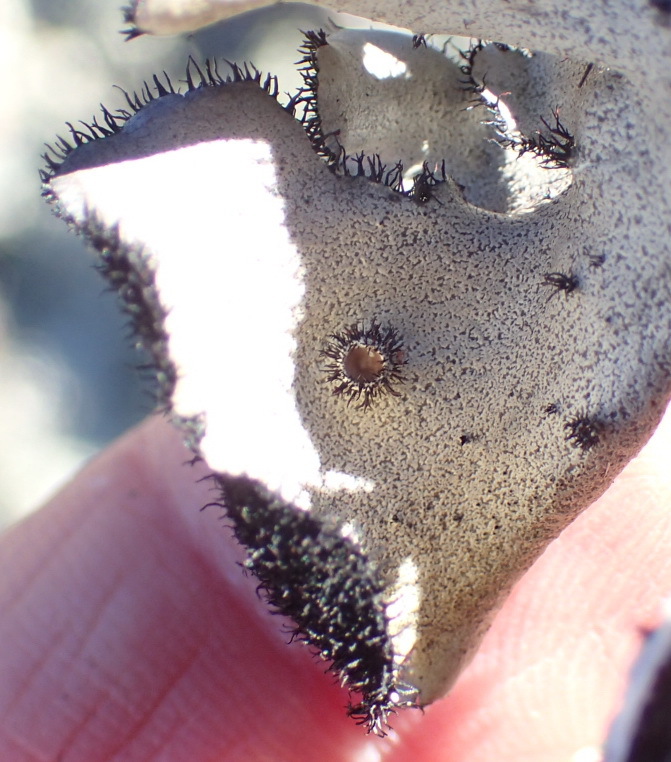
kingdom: Fungi
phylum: Ascomycota
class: Lecanoromycetes
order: Lecanorales
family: Parmeliaceae
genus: Xanthoparmelia
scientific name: Xanthoparmelia hottentotta
